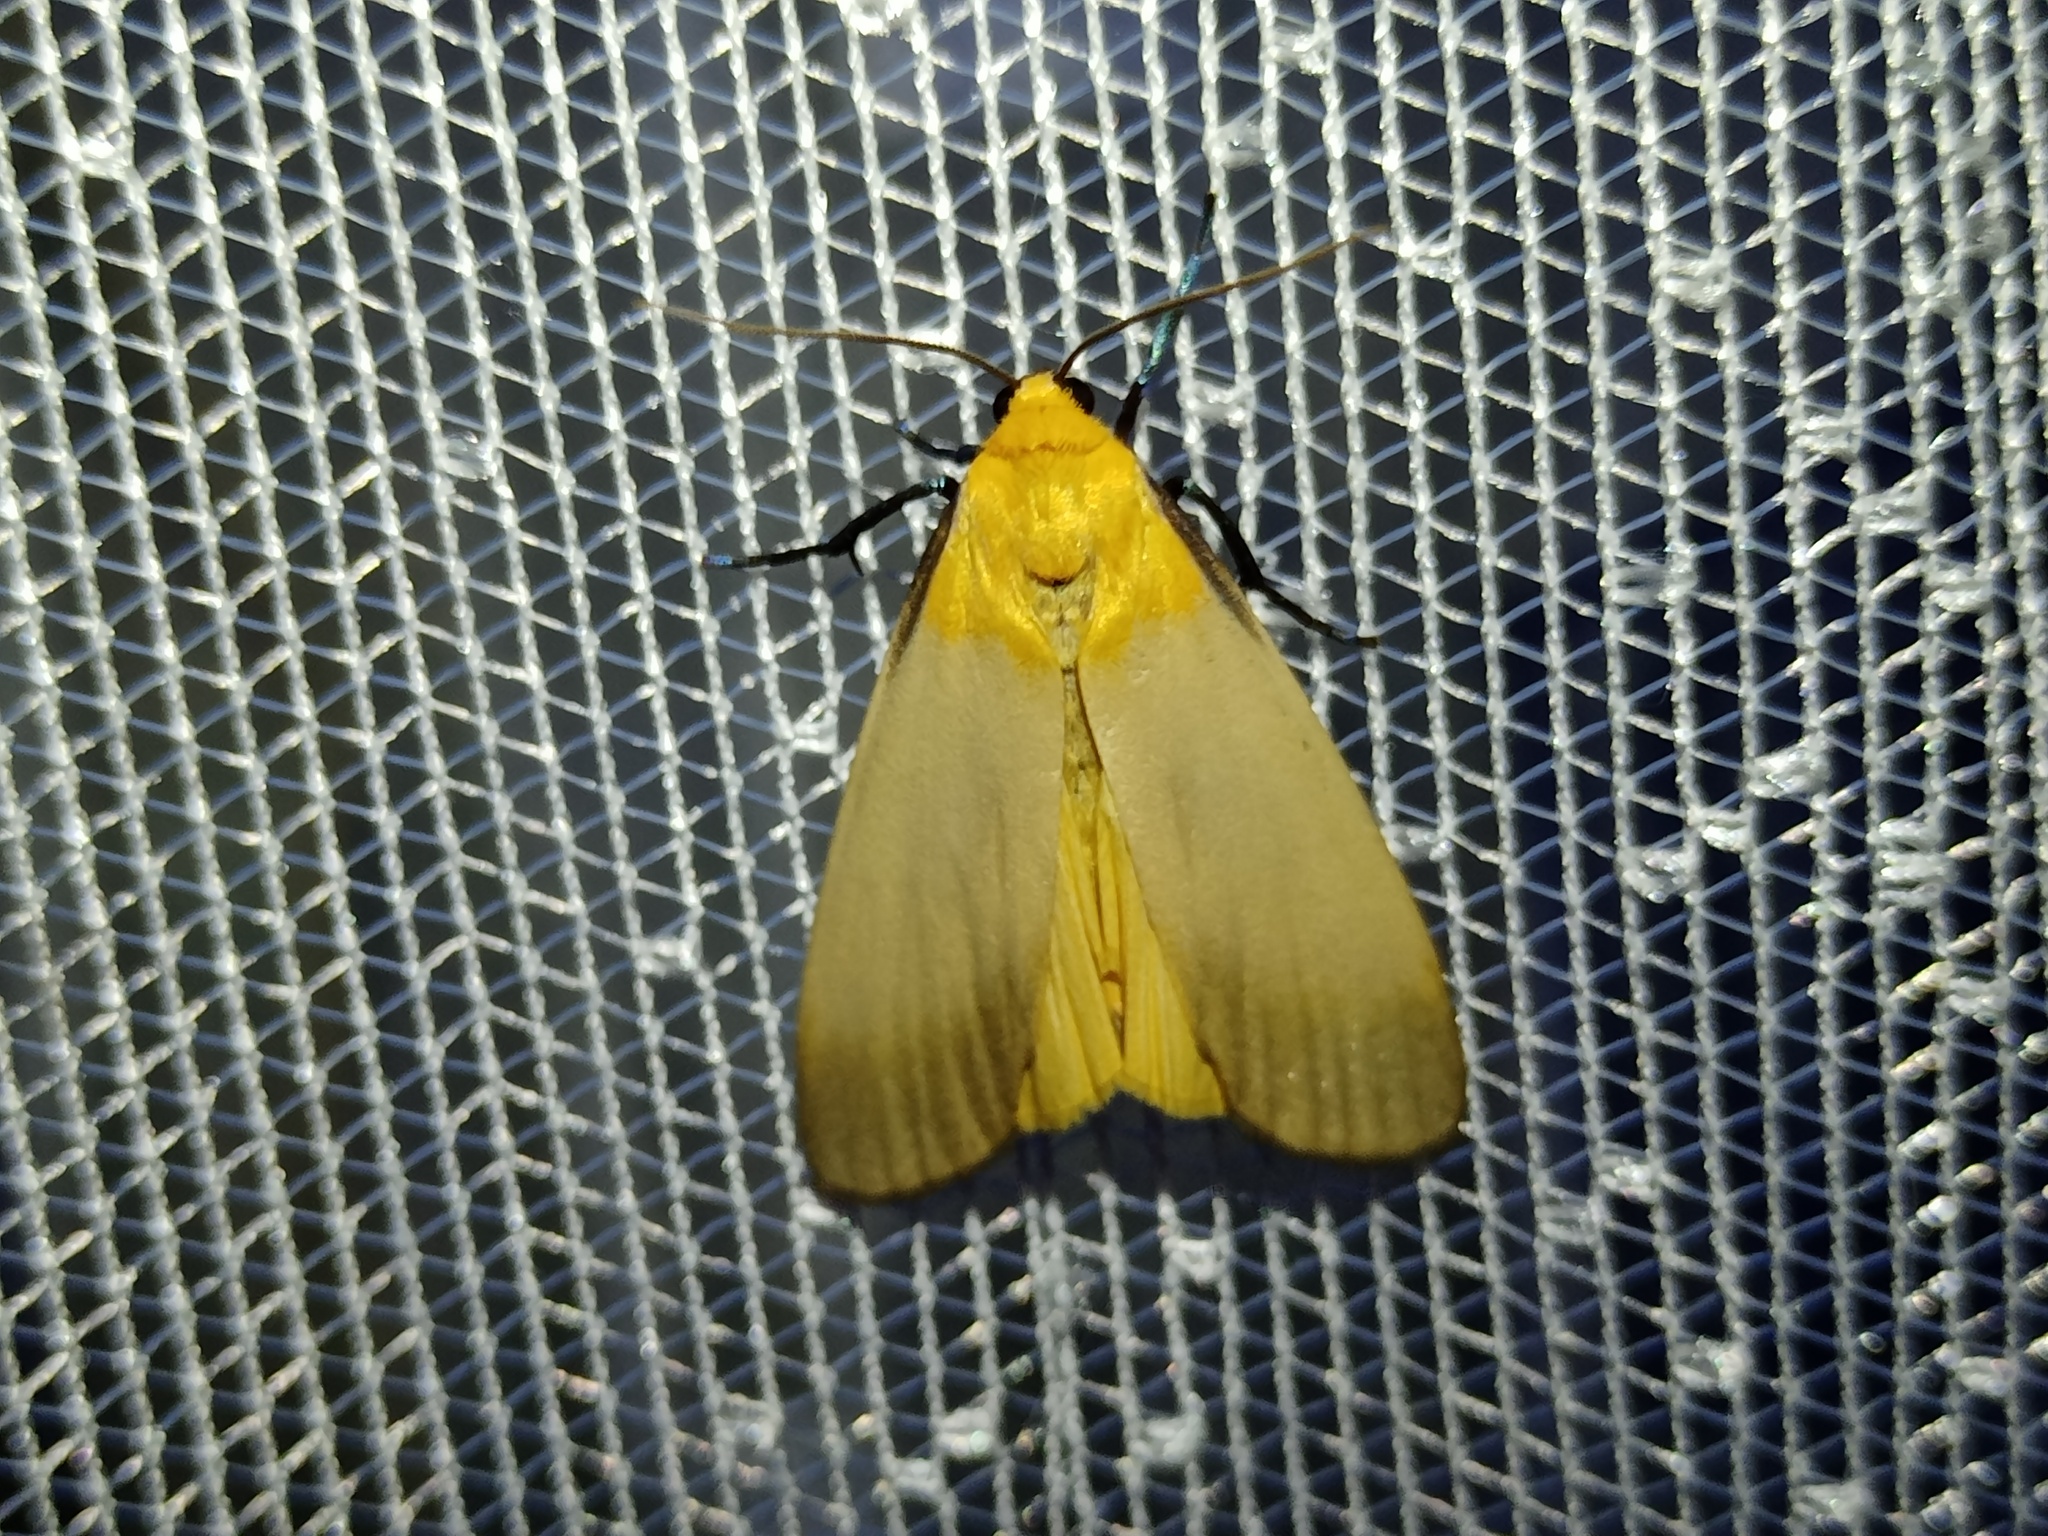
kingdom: Animalia
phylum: Arthropoda
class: Insecta
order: Lepidoptera
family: Erebidae
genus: Lithosia
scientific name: Lithosia quadra
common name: Four-spotted footman
